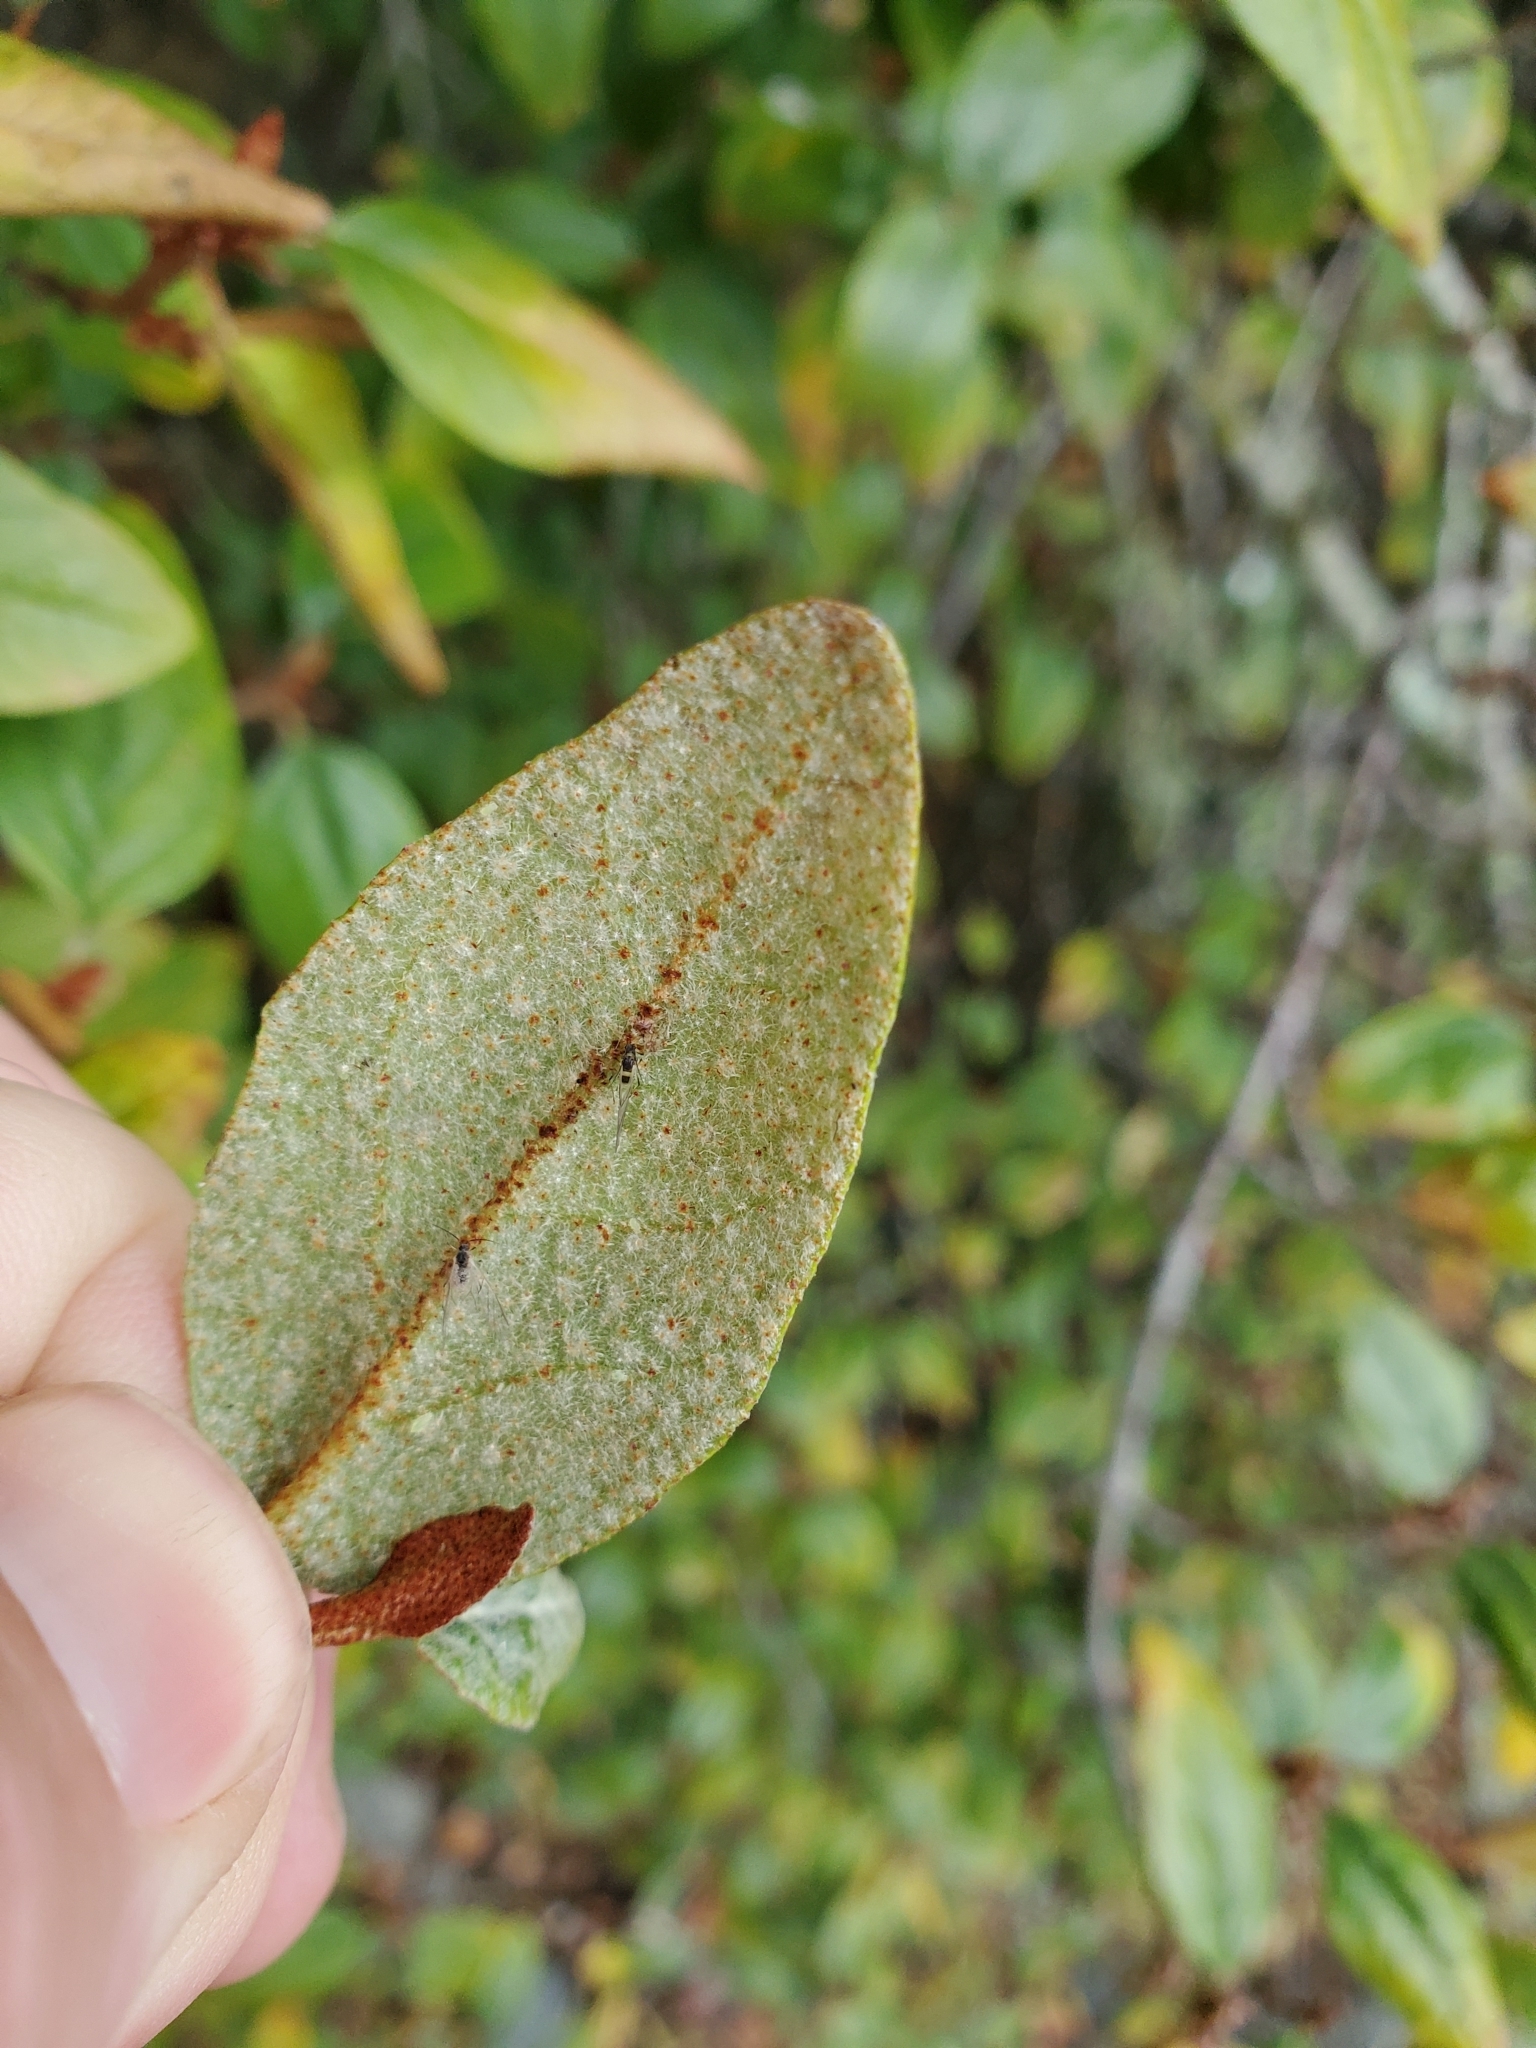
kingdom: Plantae
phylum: Tracheophyta
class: Magnoliopsida
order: Rosales
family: Elaeagnaceae
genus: Shepherdia
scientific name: Shepherdia canadensis
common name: Soapberry
